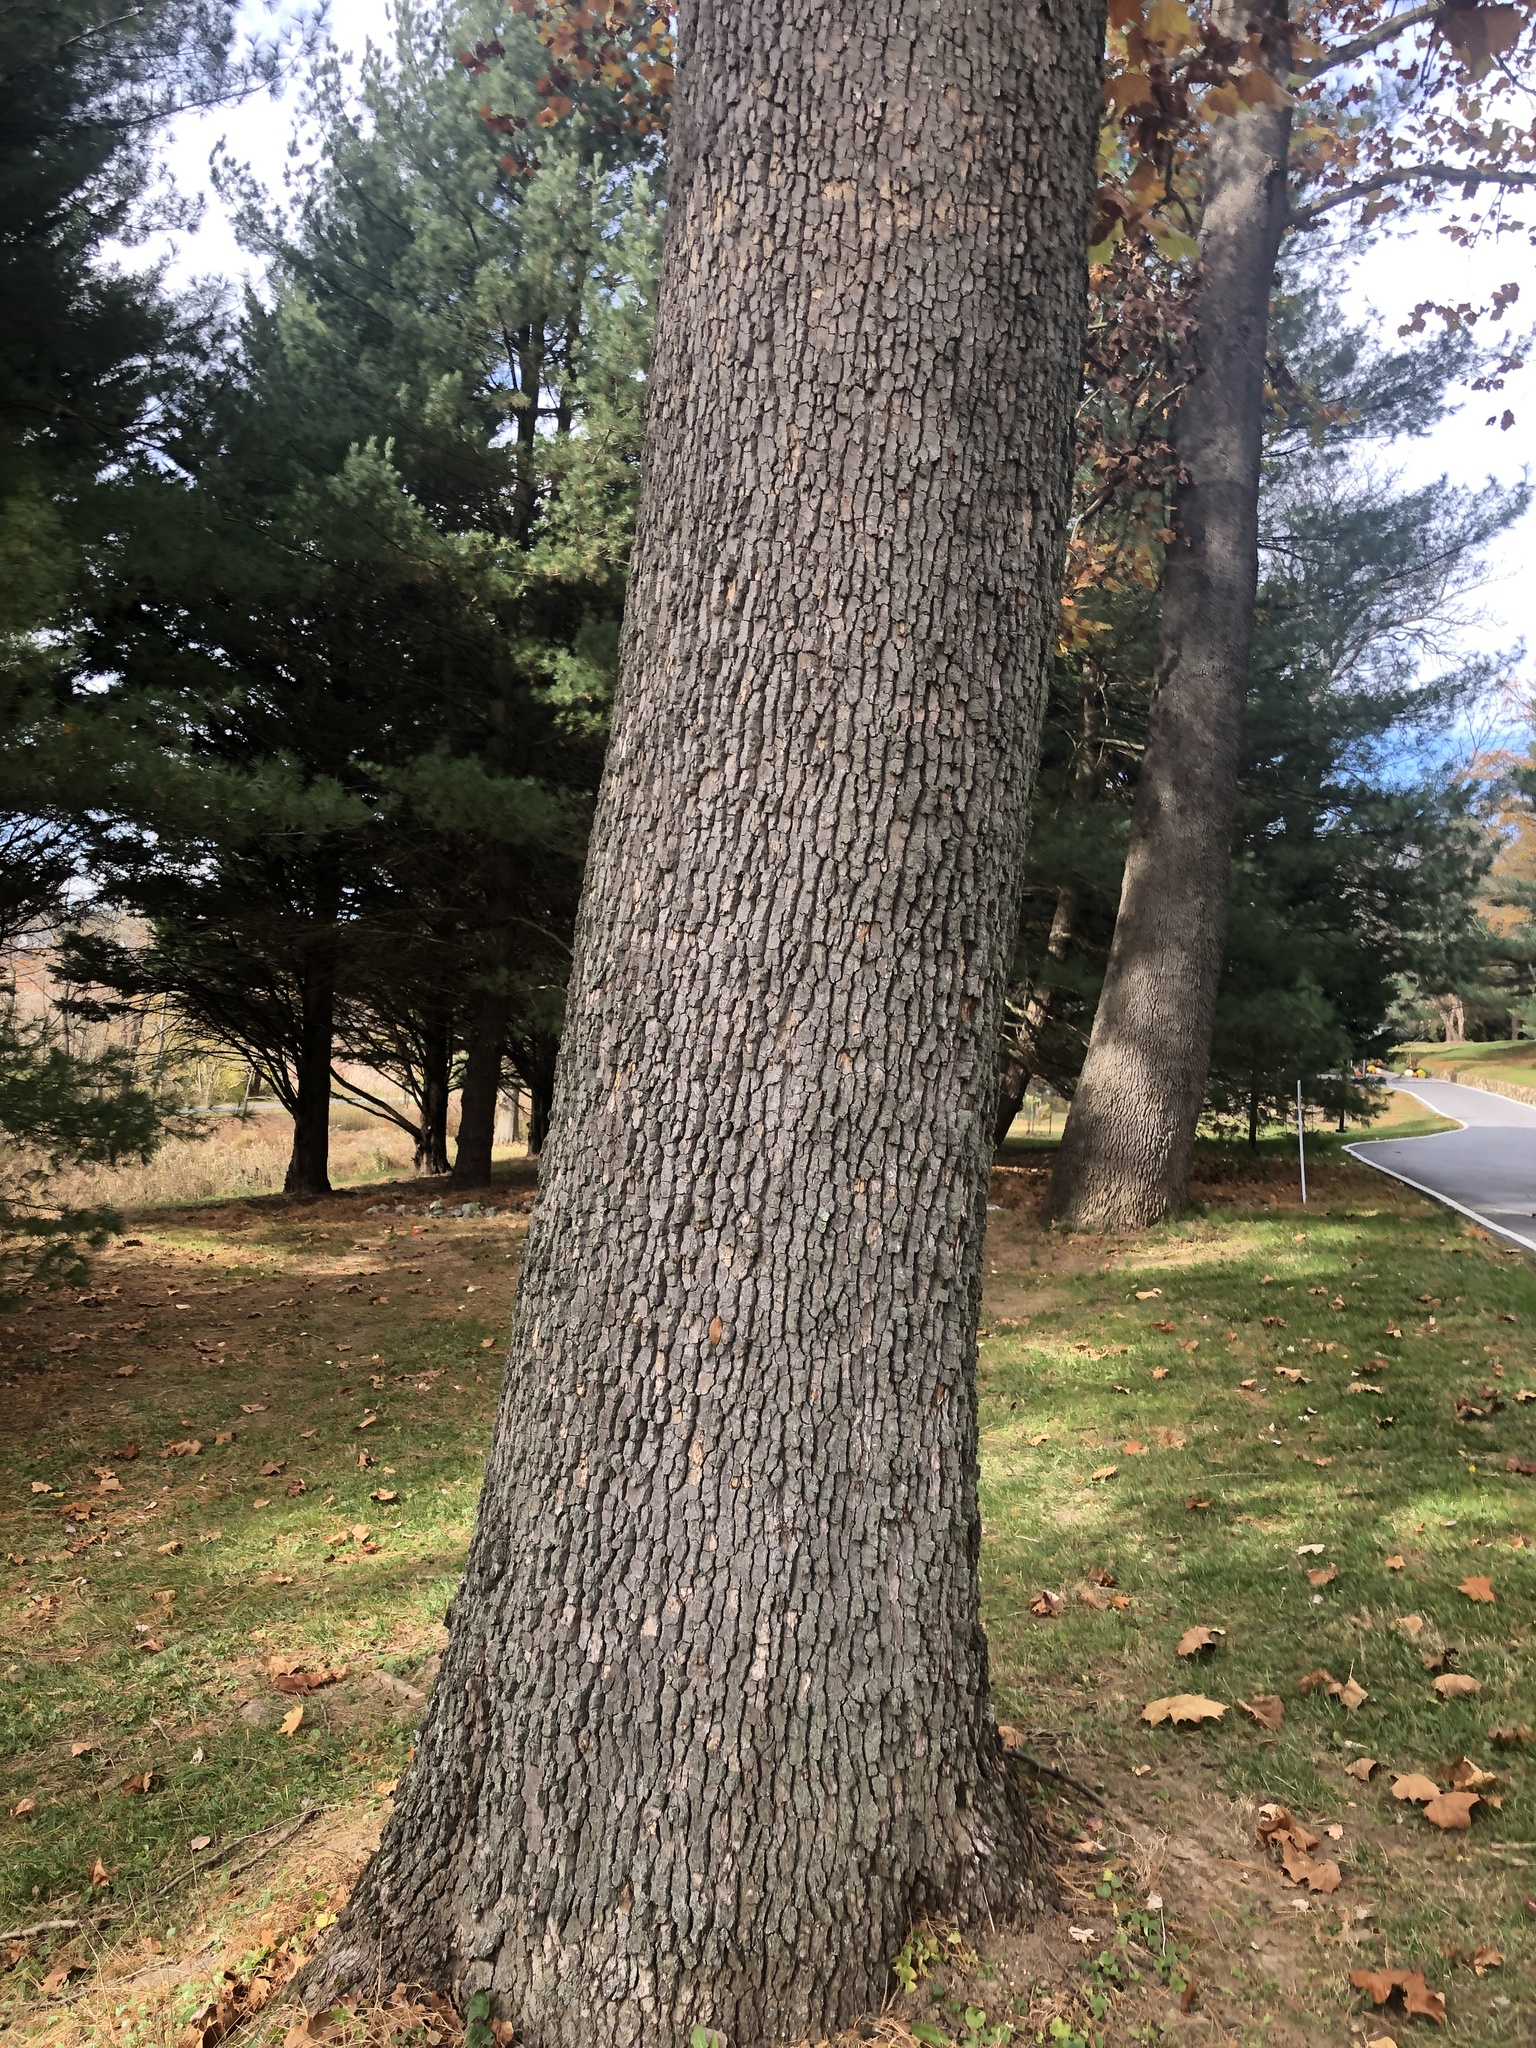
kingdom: Plantae
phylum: Tracheophyta
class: Magnoliopsida
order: Proteales
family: Platanaceae
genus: Platanus
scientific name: Platanus occidentalis
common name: American sycamore
